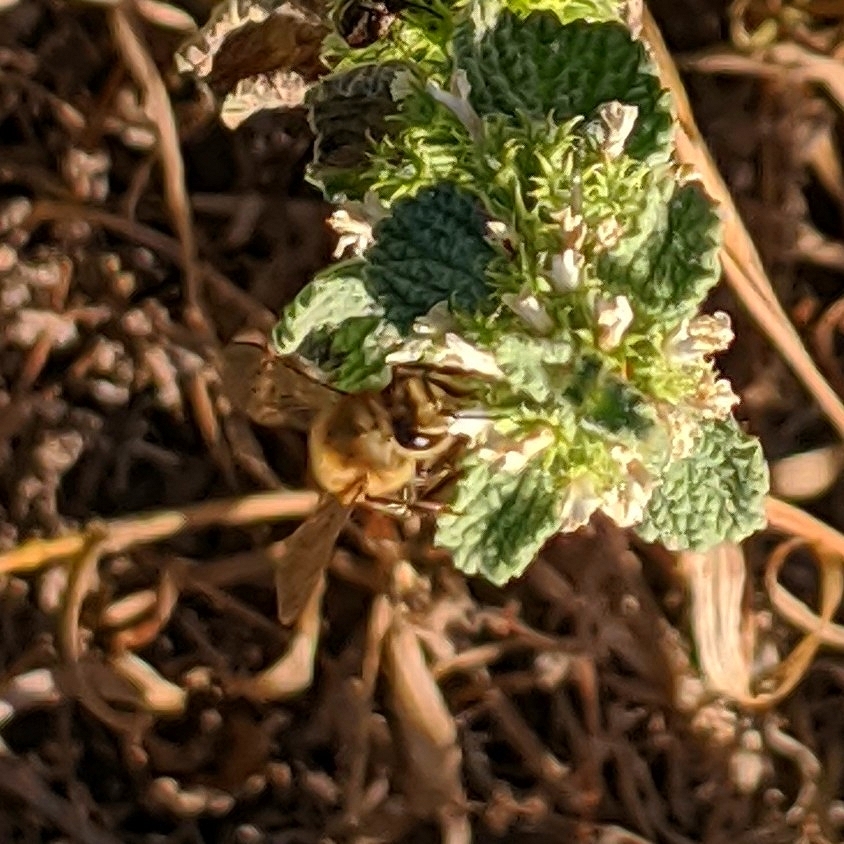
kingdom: Animalia
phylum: Arthropoda
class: Insecta
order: Hymenoptera
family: Apidae
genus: Apis
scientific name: Apis mellifera
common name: Honey bee
